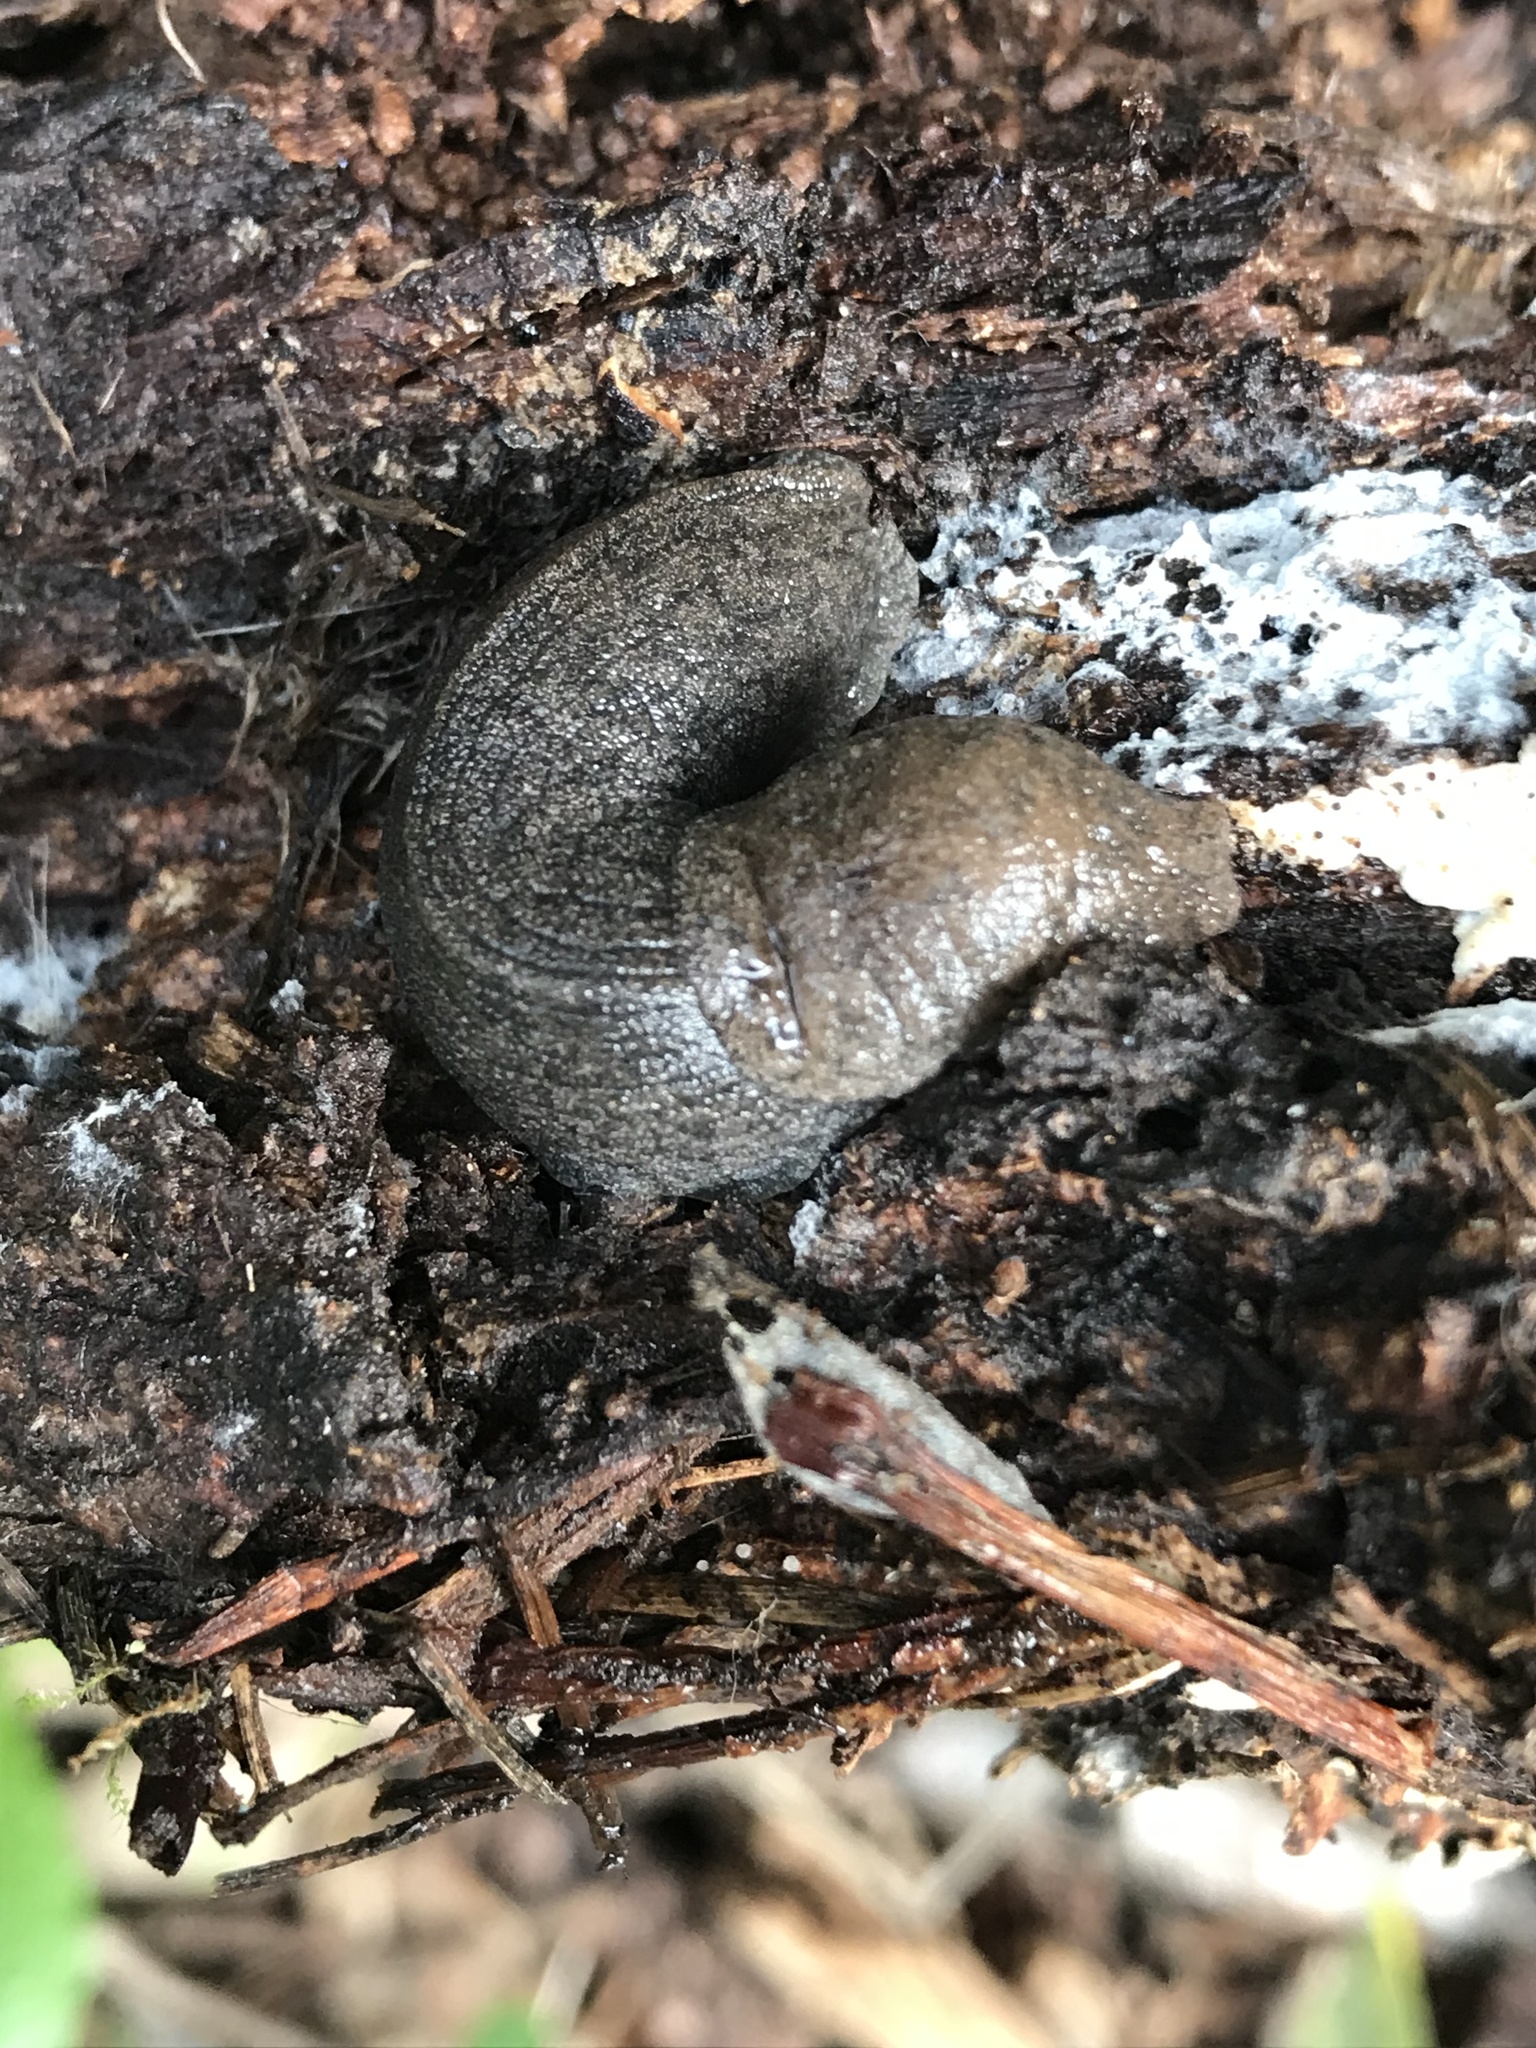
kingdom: Animalia
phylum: Mollusca
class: Gastropoda
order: Stylommatophora
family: Ariolimacidae
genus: Hesperarion
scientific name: Hesperarion niger
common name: Black western slug
